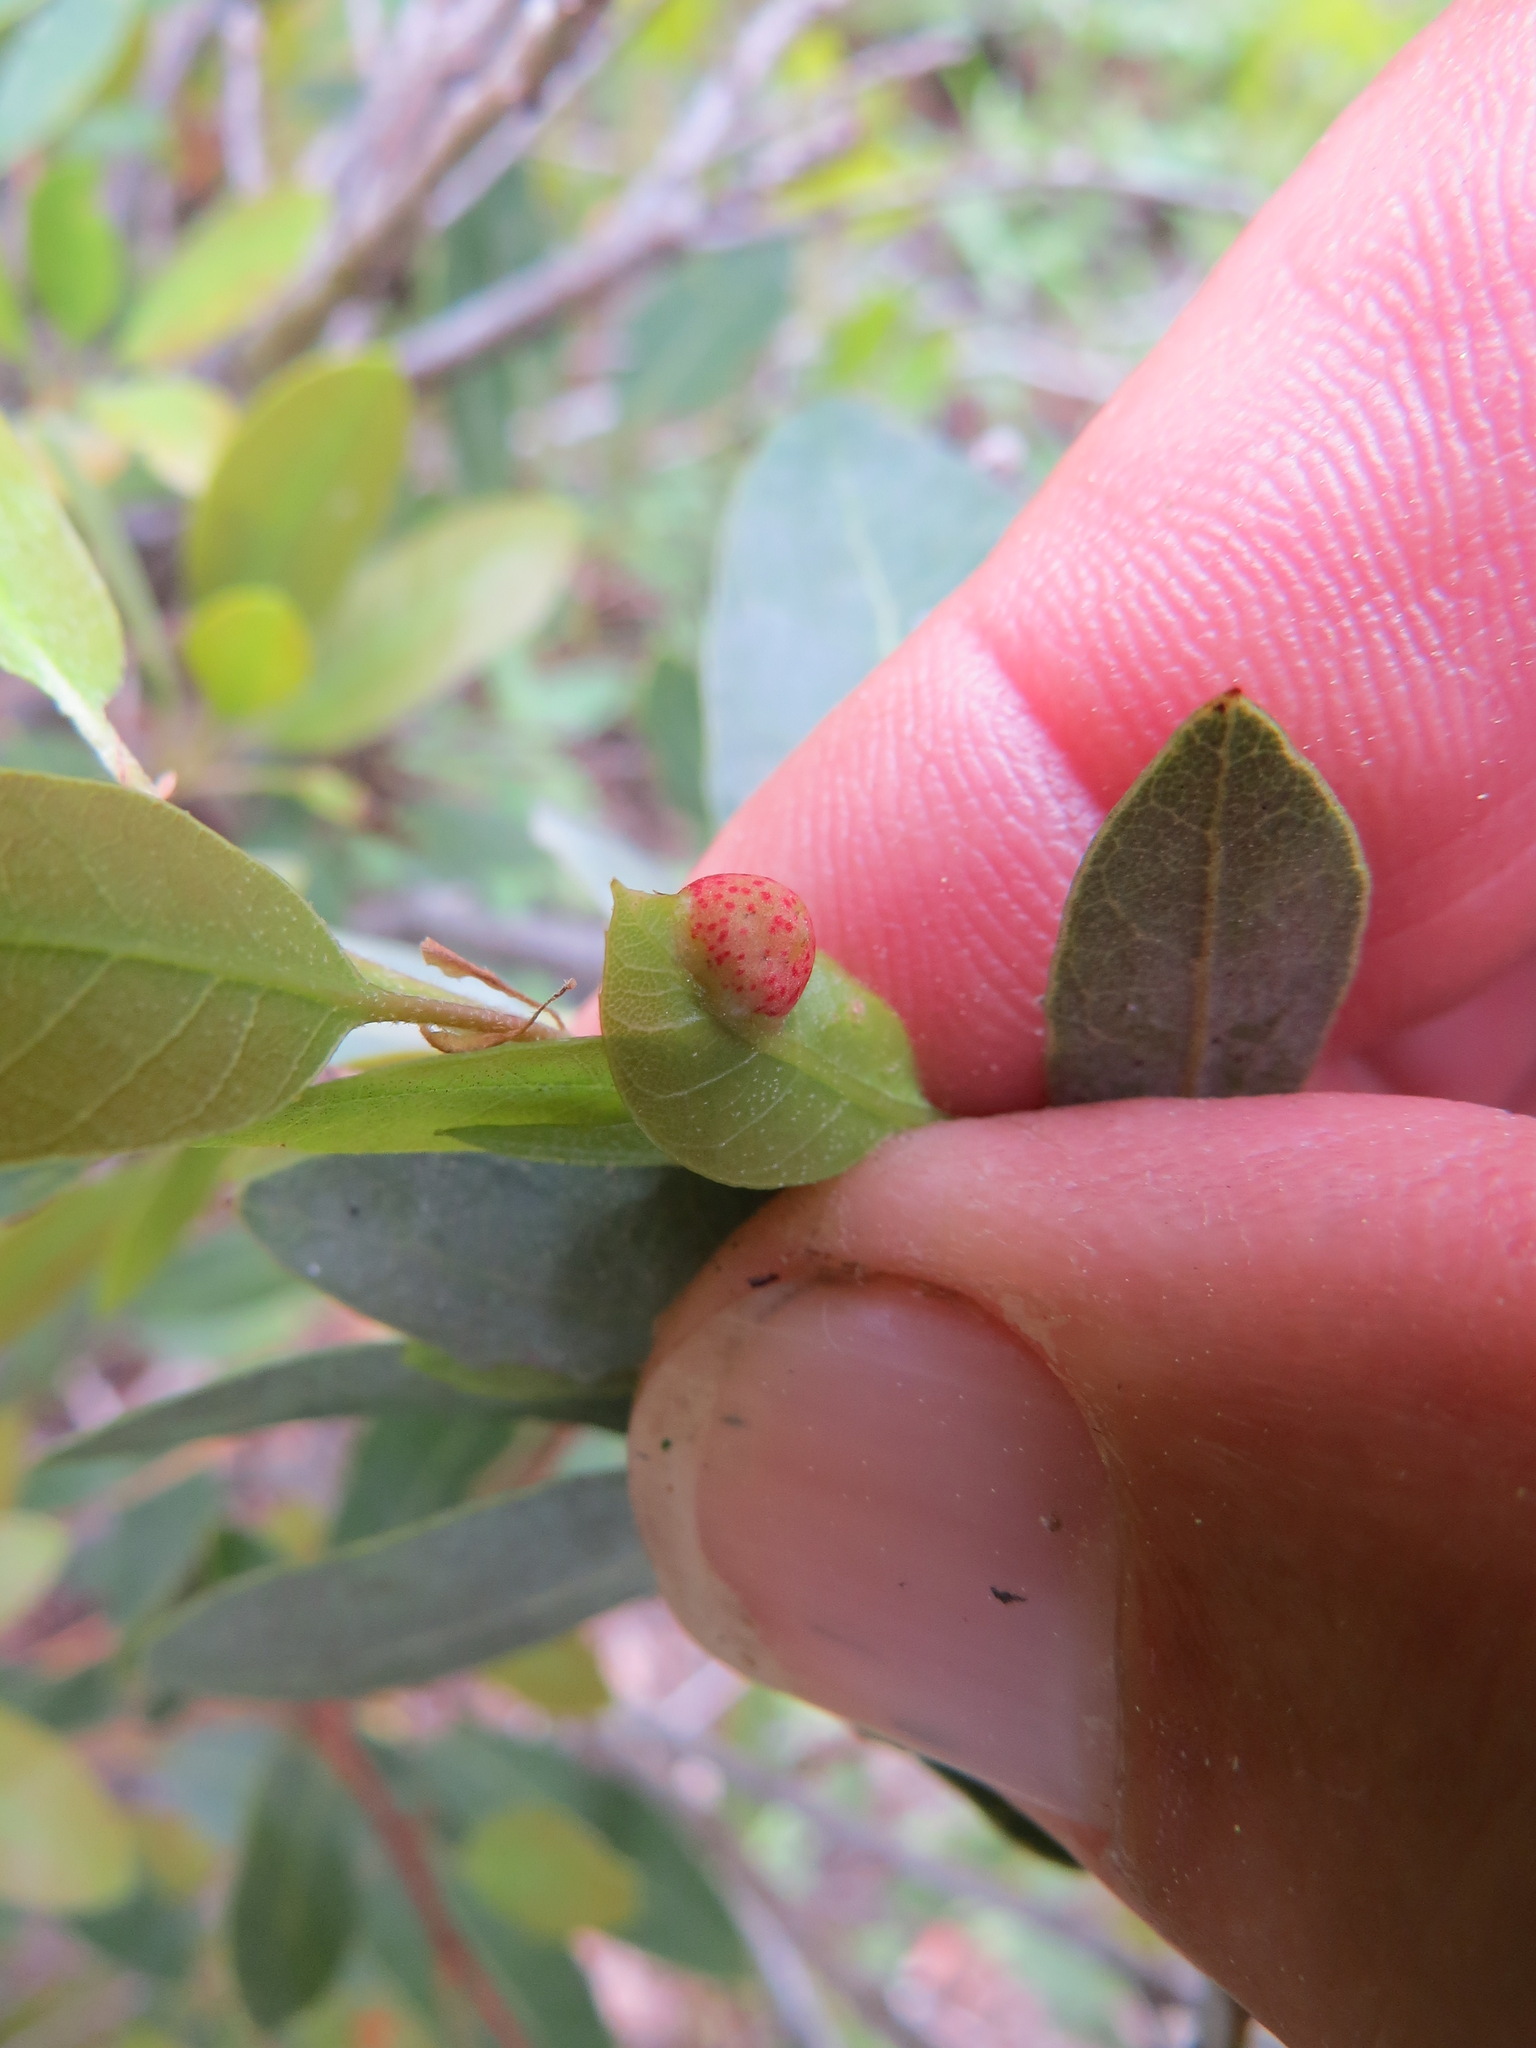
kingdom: Animalia
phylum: Arthropoda
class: Insecta
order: Hymenoptera
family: Cynipidae
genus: Heteroecus
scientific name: Heteroecus
